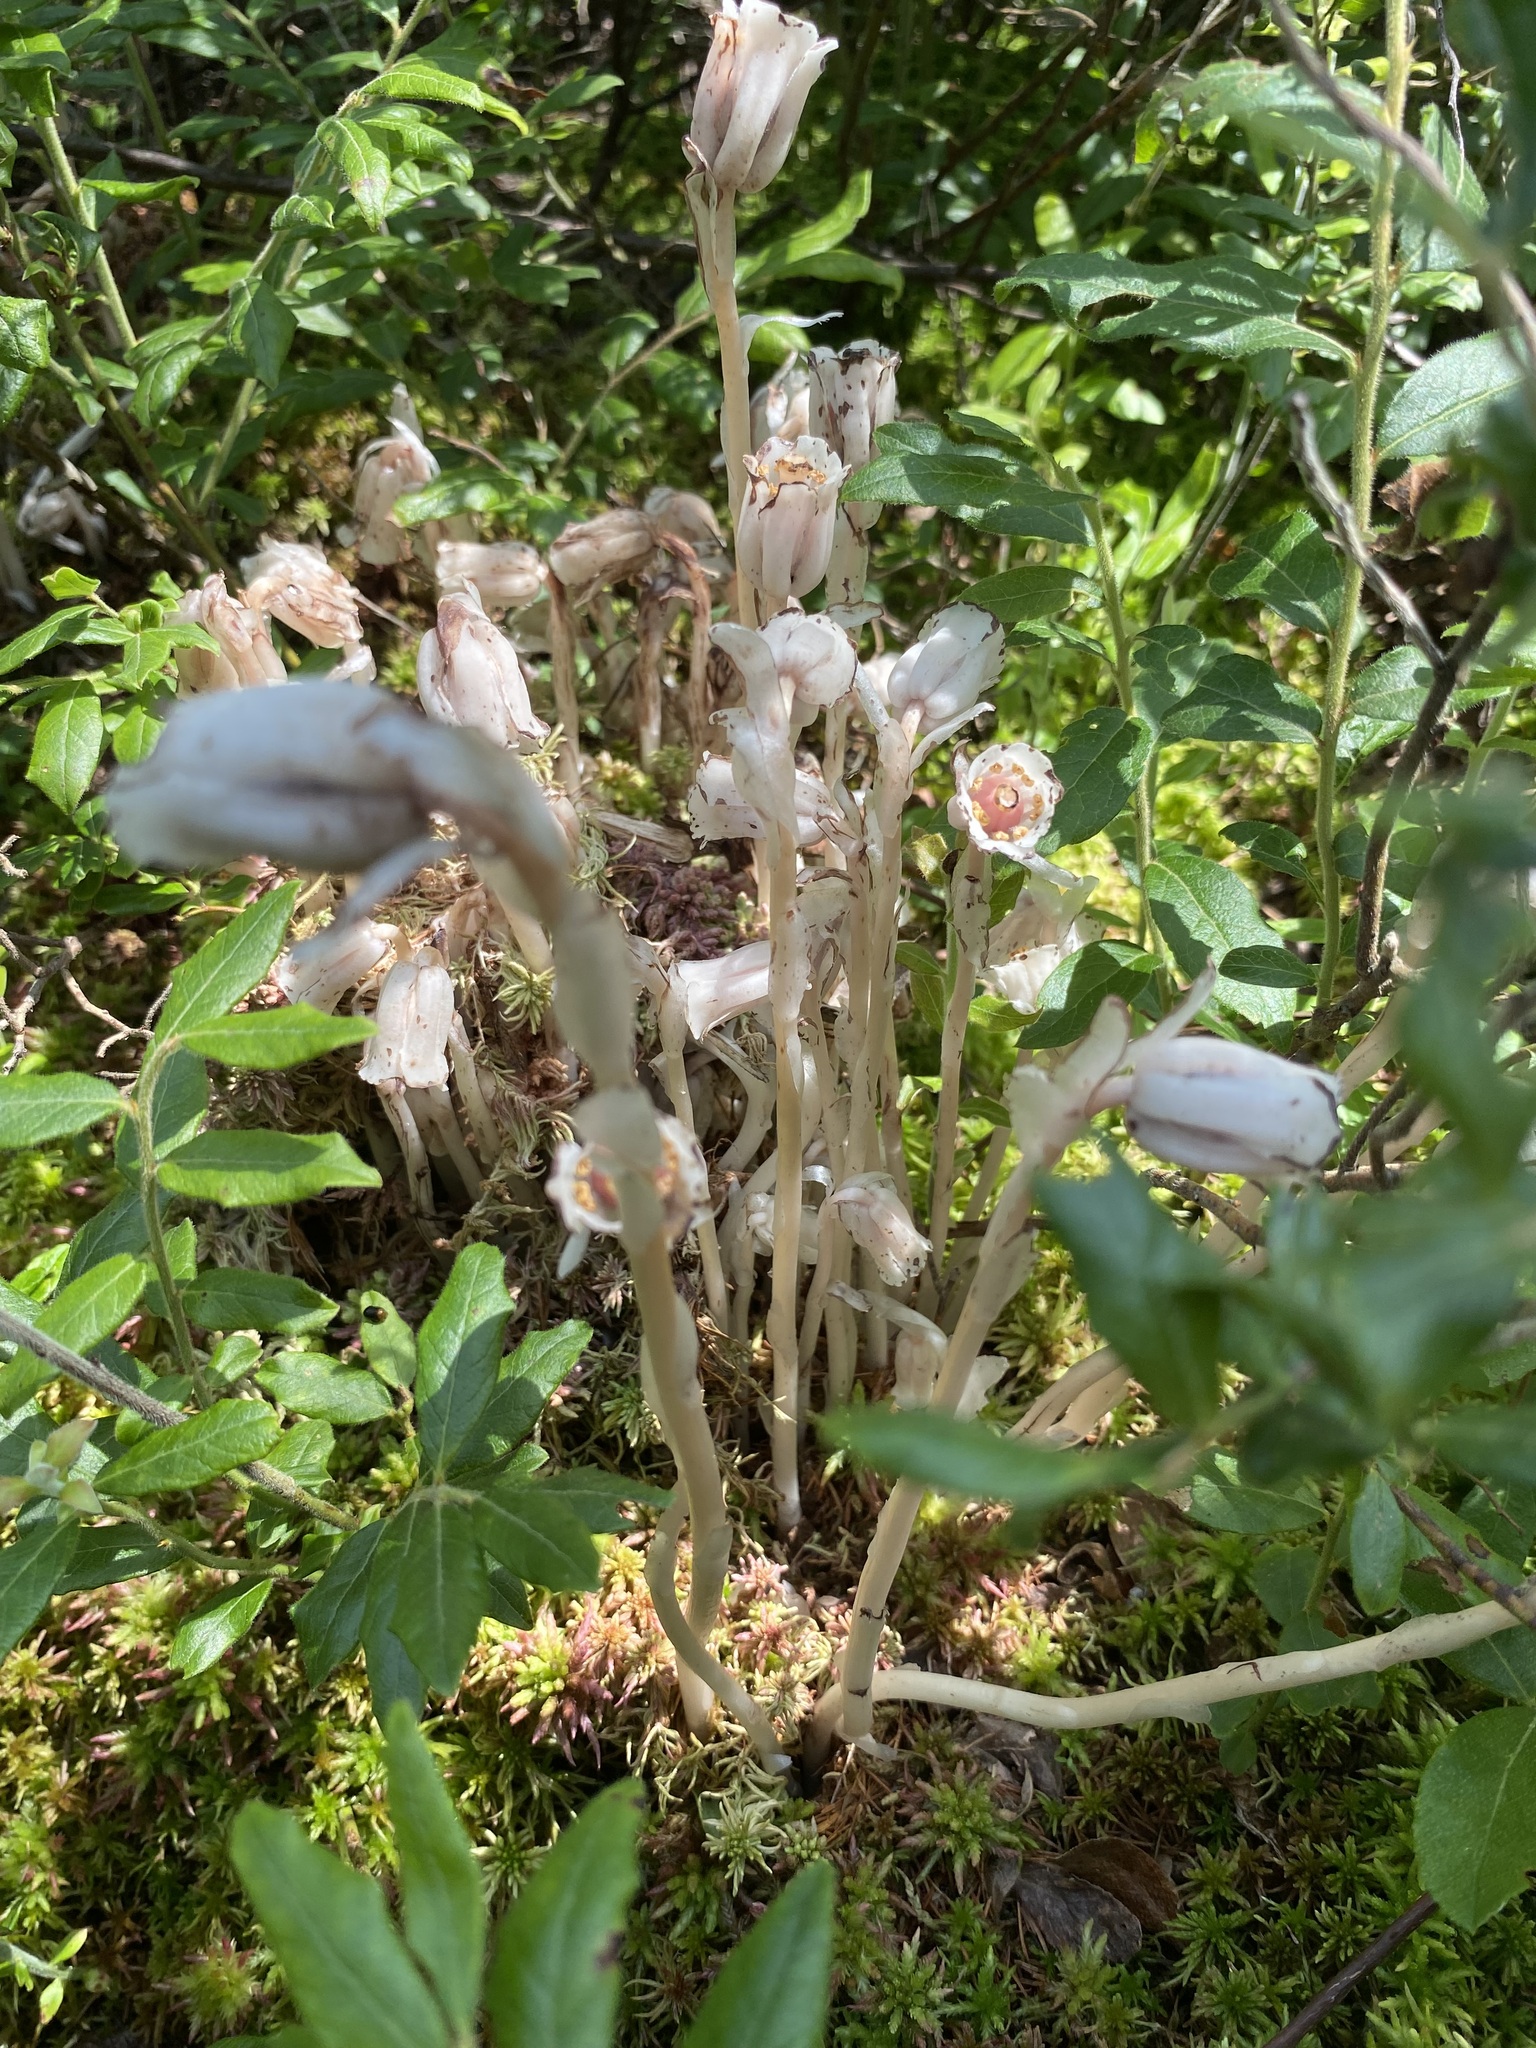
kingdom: Plantae
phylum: Tracheophyta
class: Magnoliopsida
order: Ericales
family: Ericaceae
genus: Monotropa
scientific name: Monotropa uniflora
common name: Convulsion root
